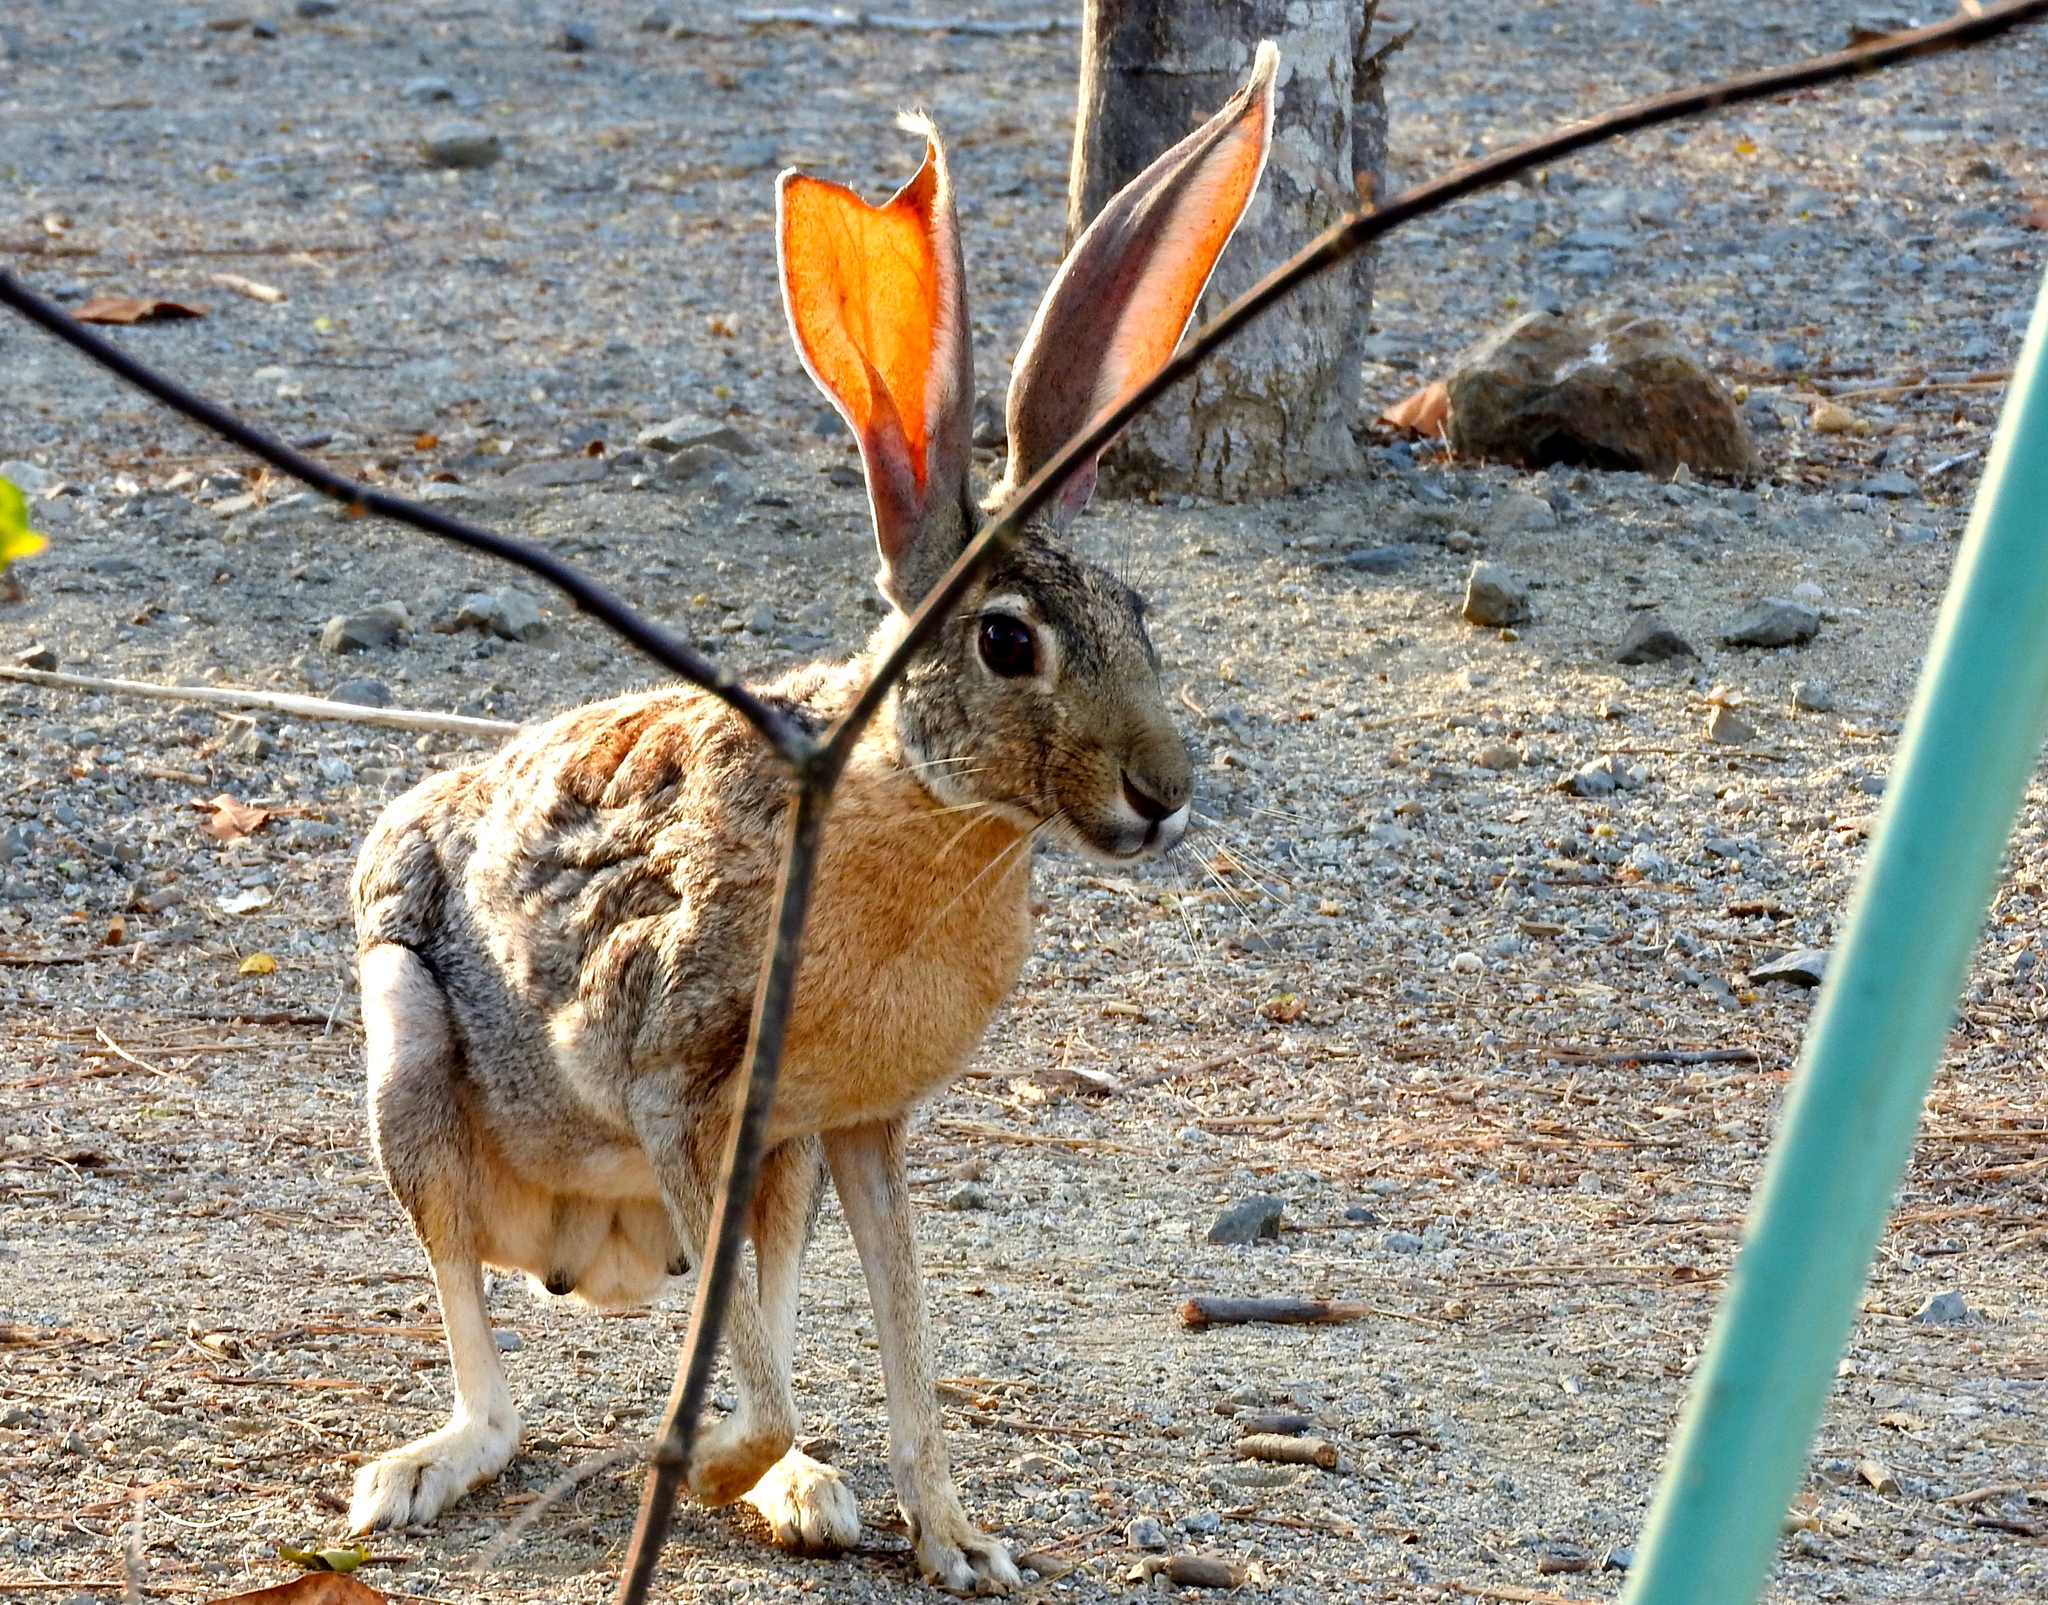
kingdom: Animalia
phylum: Chordata
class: Mammalia
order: Lagomorpha
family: Leporidae
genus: Lepus
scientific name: Lepus alleni
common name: Antelope jackrabbit
